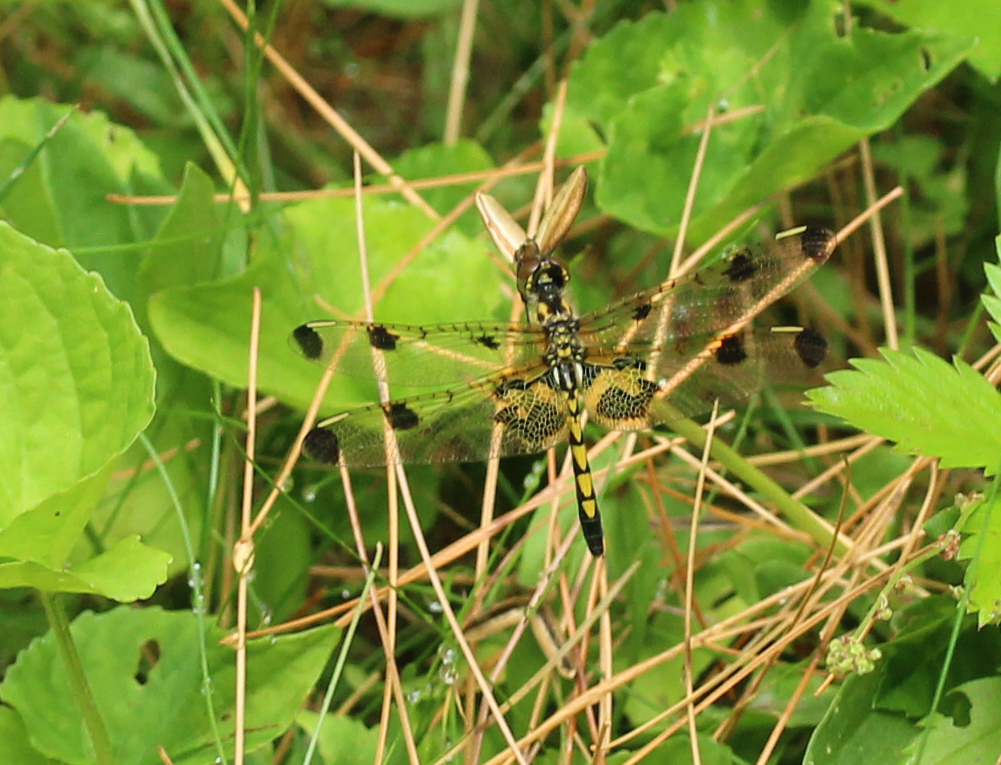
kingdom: Animalia
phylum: Arthropoda
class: Insecta
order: Odonata
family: Libellulidae
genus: Celithemis
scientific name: Celithemis elisa
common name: Calico pennant
